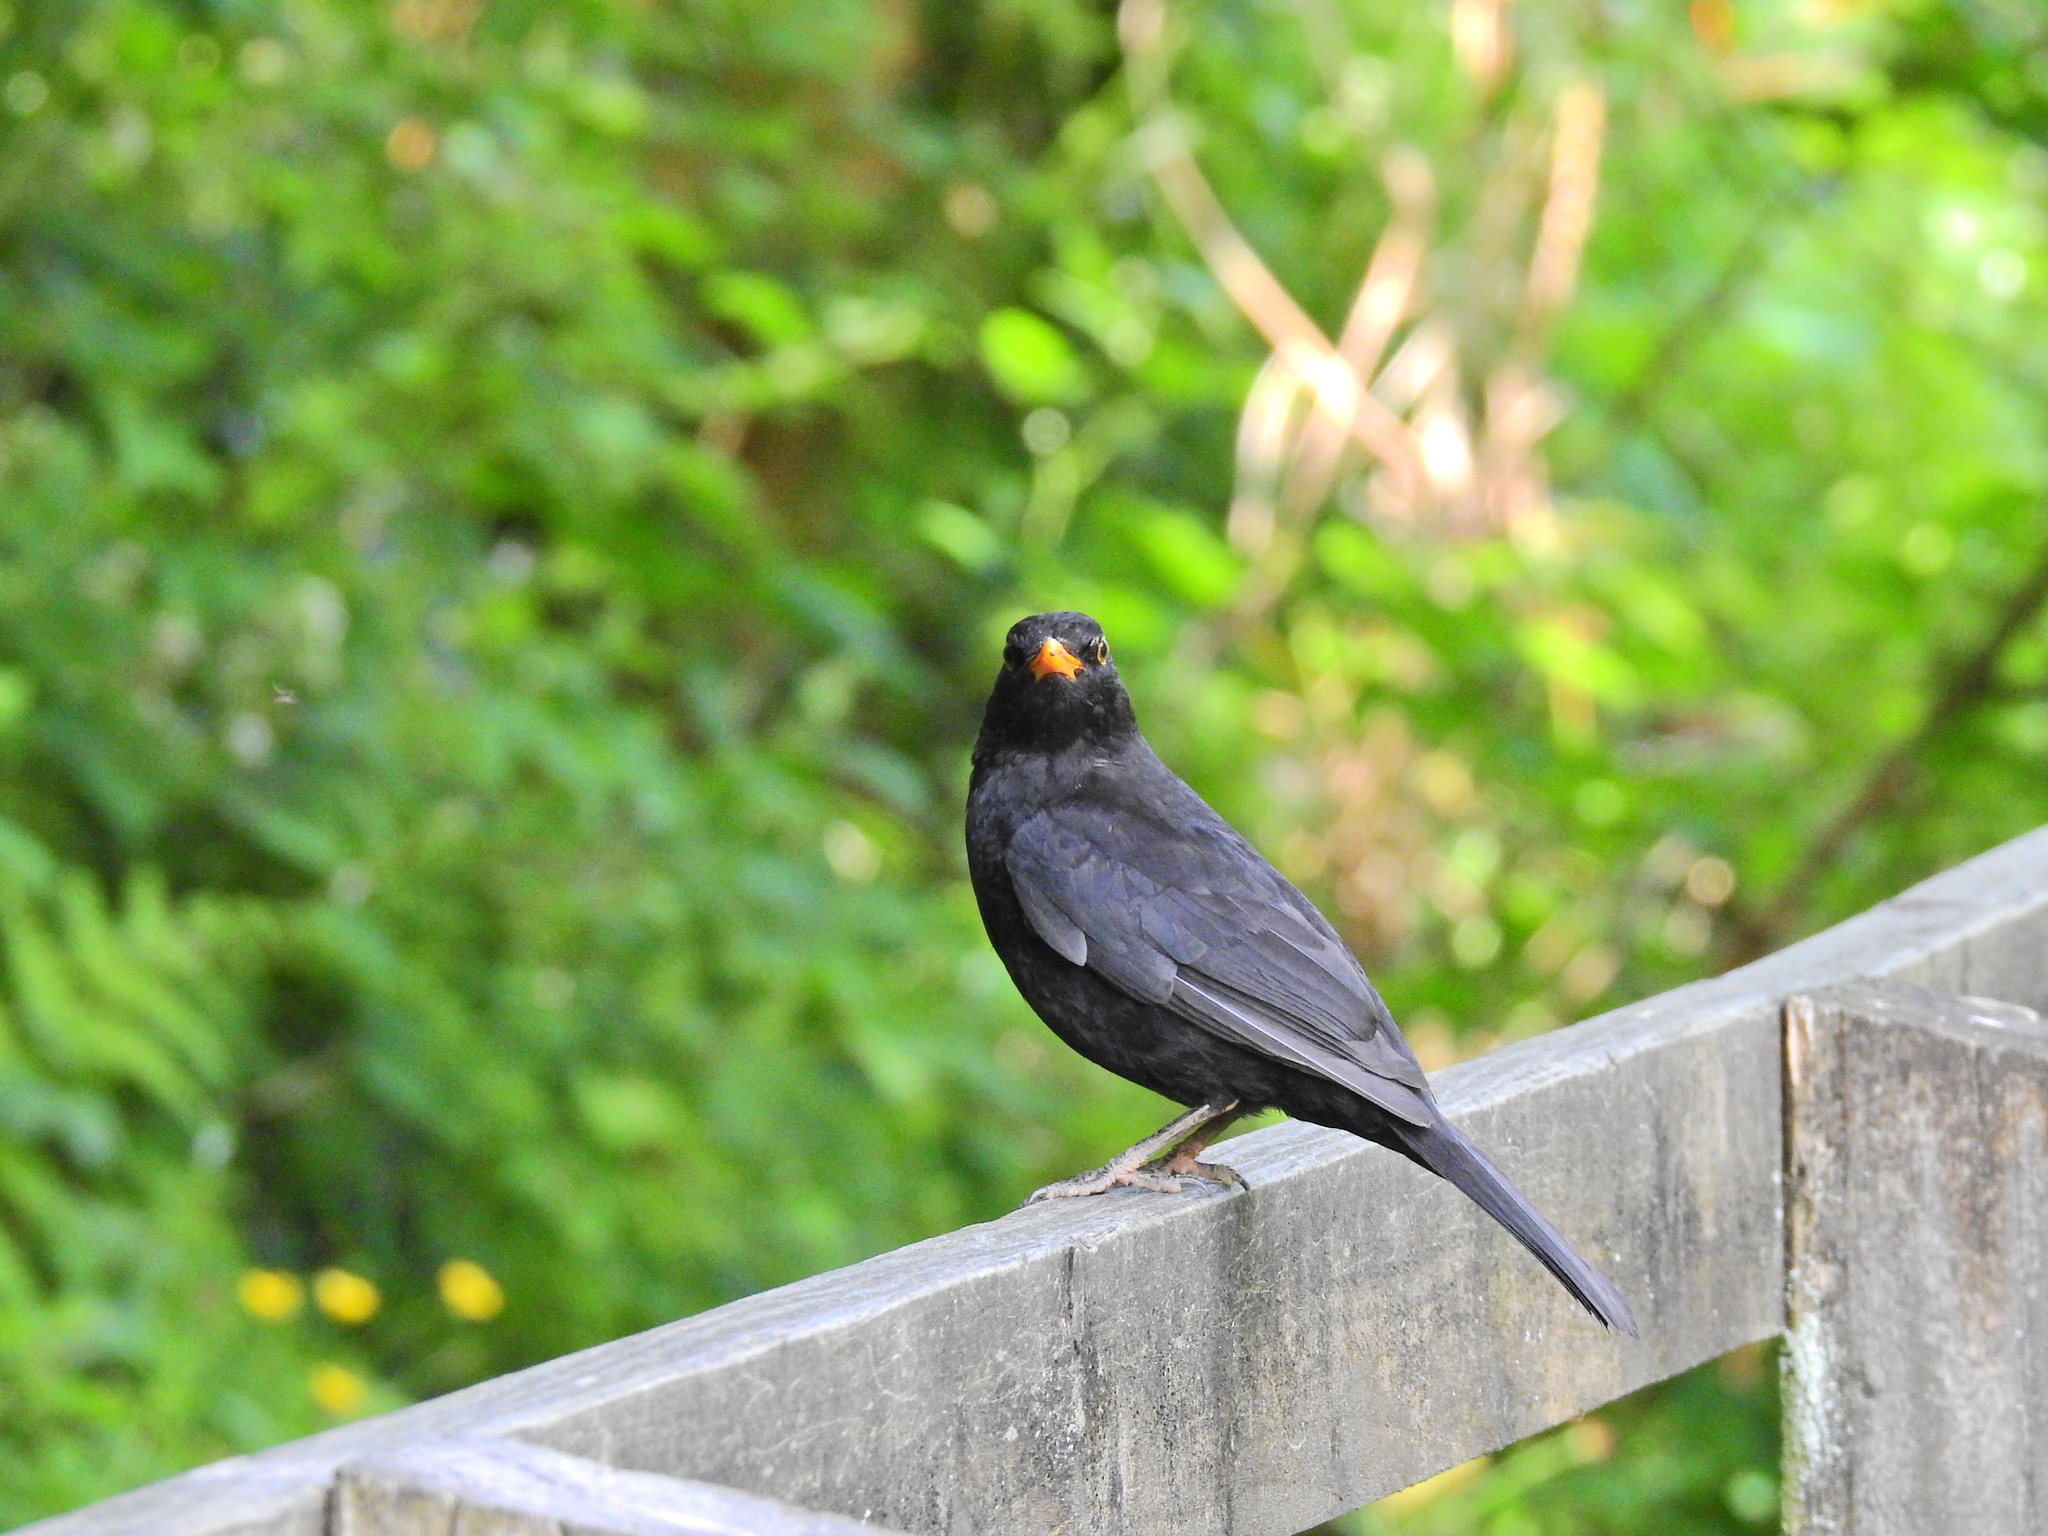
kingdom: Animalia
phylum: Chordata
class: Aves
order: Passeriformes
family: Turdidae
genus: Turdus
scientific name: Turdus merula
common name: Common blackbird
